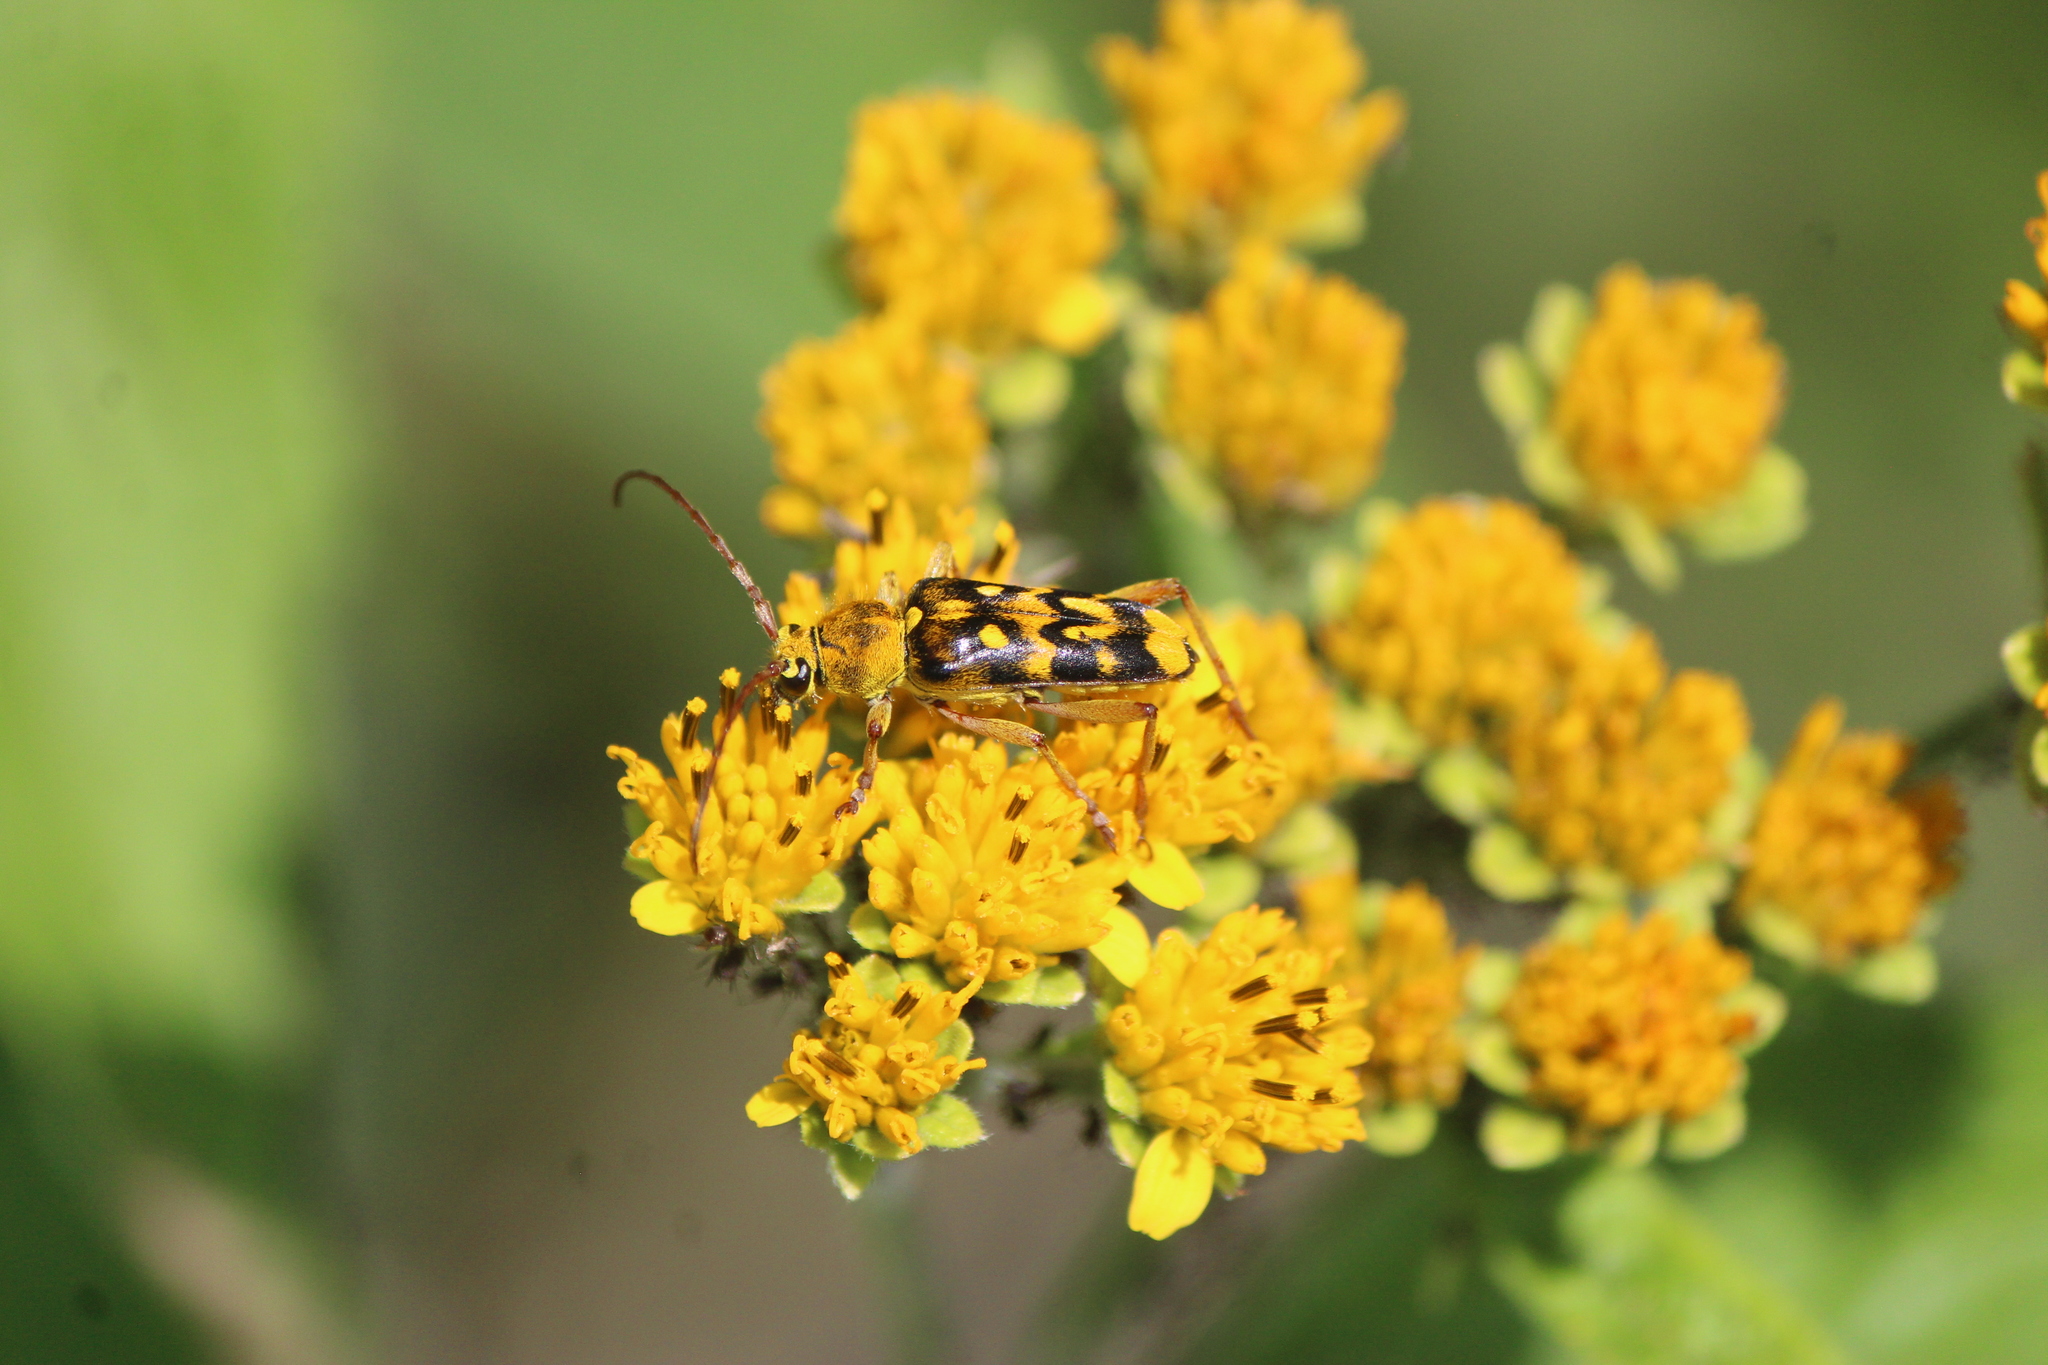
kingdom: Animalia
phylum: Arthropoda
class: Insecta
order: Coleoptera
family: Cerambycidae
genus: Ochraethes
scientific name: Ochraethes sommeri
